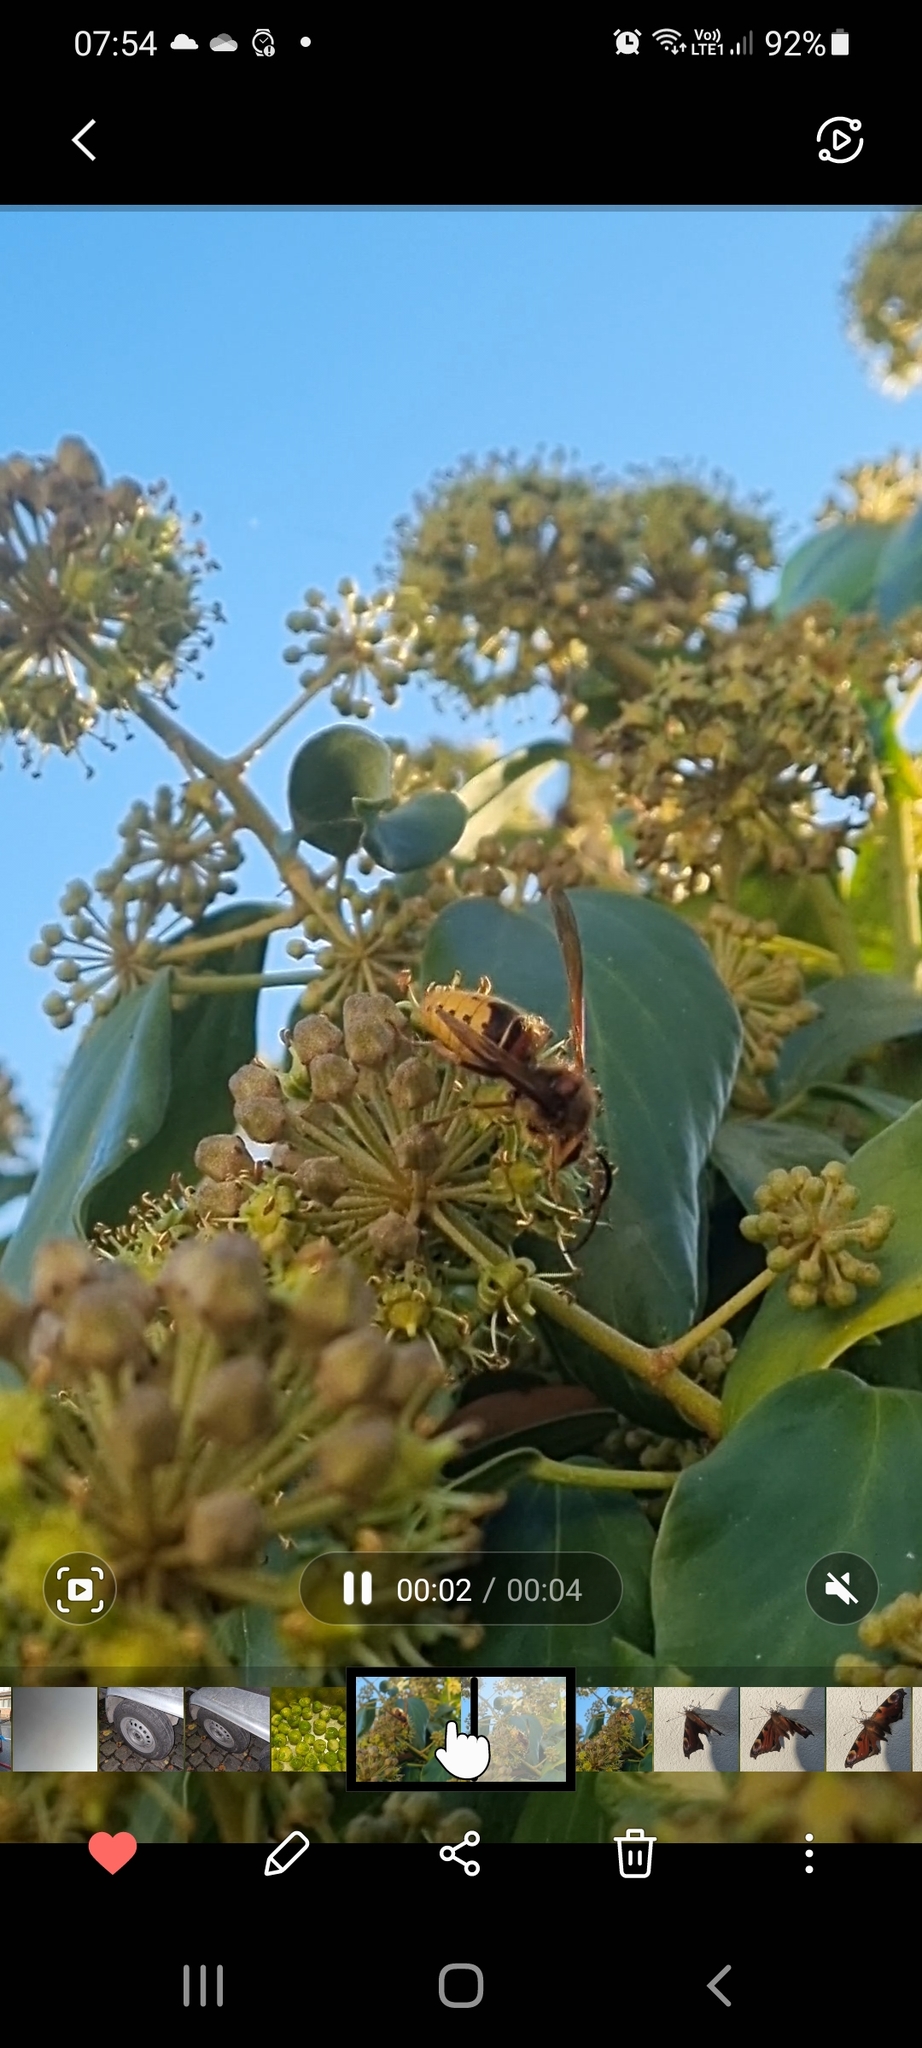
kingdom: Animalia
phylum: Arthropoda
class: Insecta
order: Hymenoptera
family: Vespidae
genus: Vespa
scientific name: Vespa crabro
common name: Hornet
